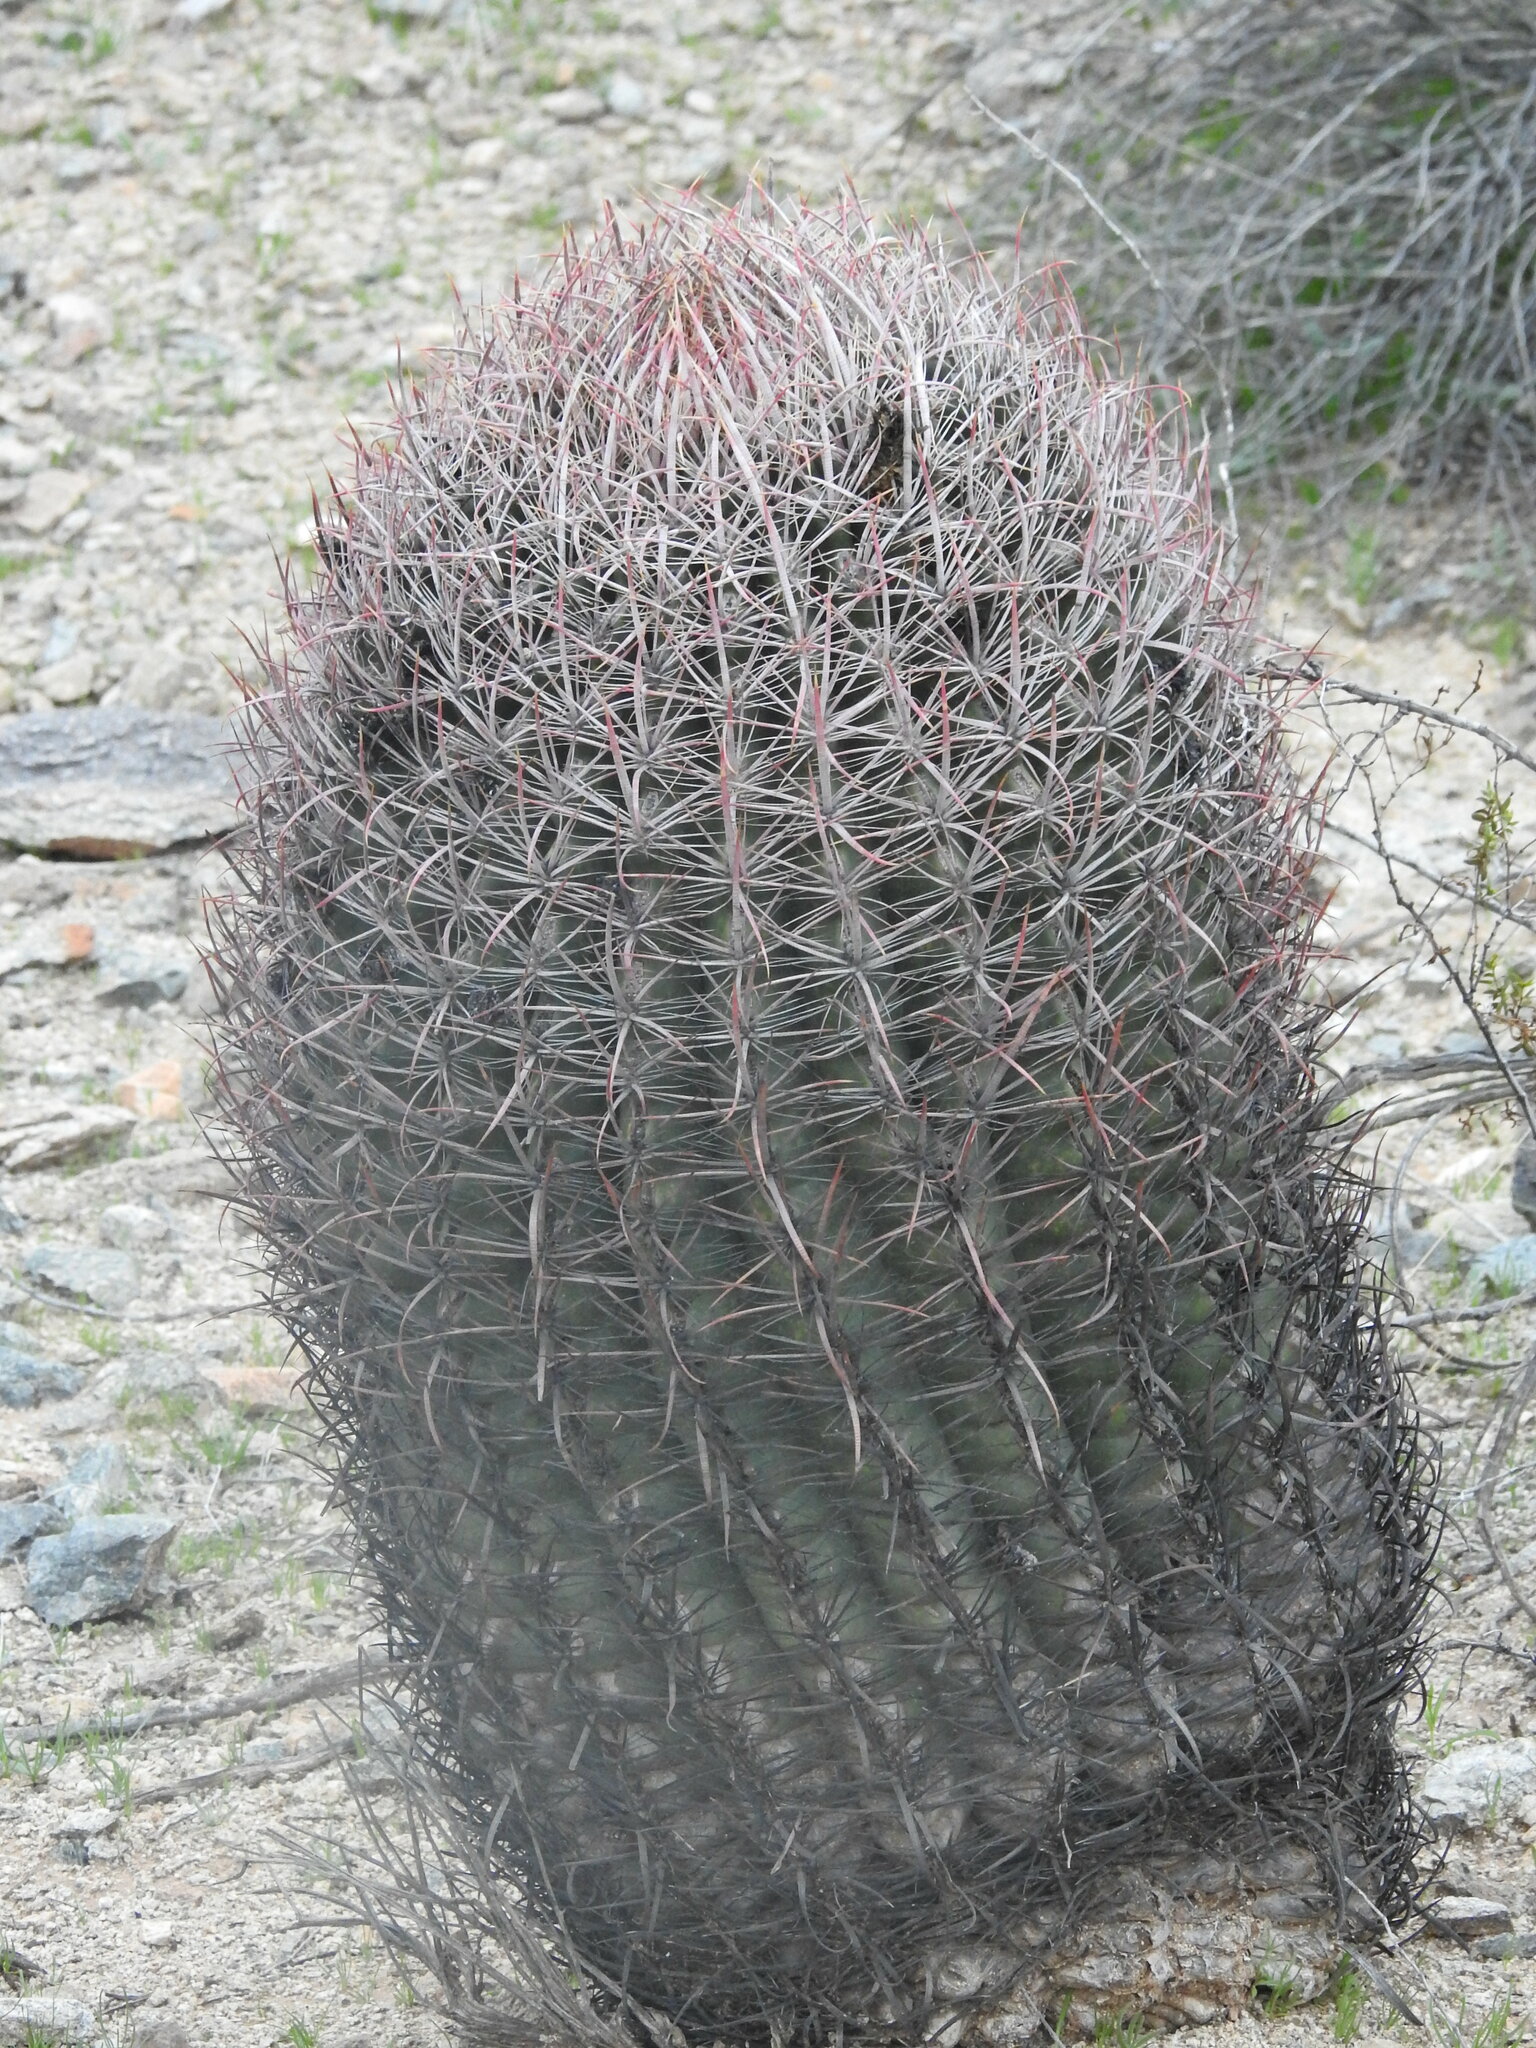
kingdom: Plantae
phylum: Tracheophyta
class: Magnoliopsida
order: Caryophyllales
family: Cactaceae
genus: Ferocactus
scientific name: Ferocactus cylindraceus
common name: California barrel cactus
